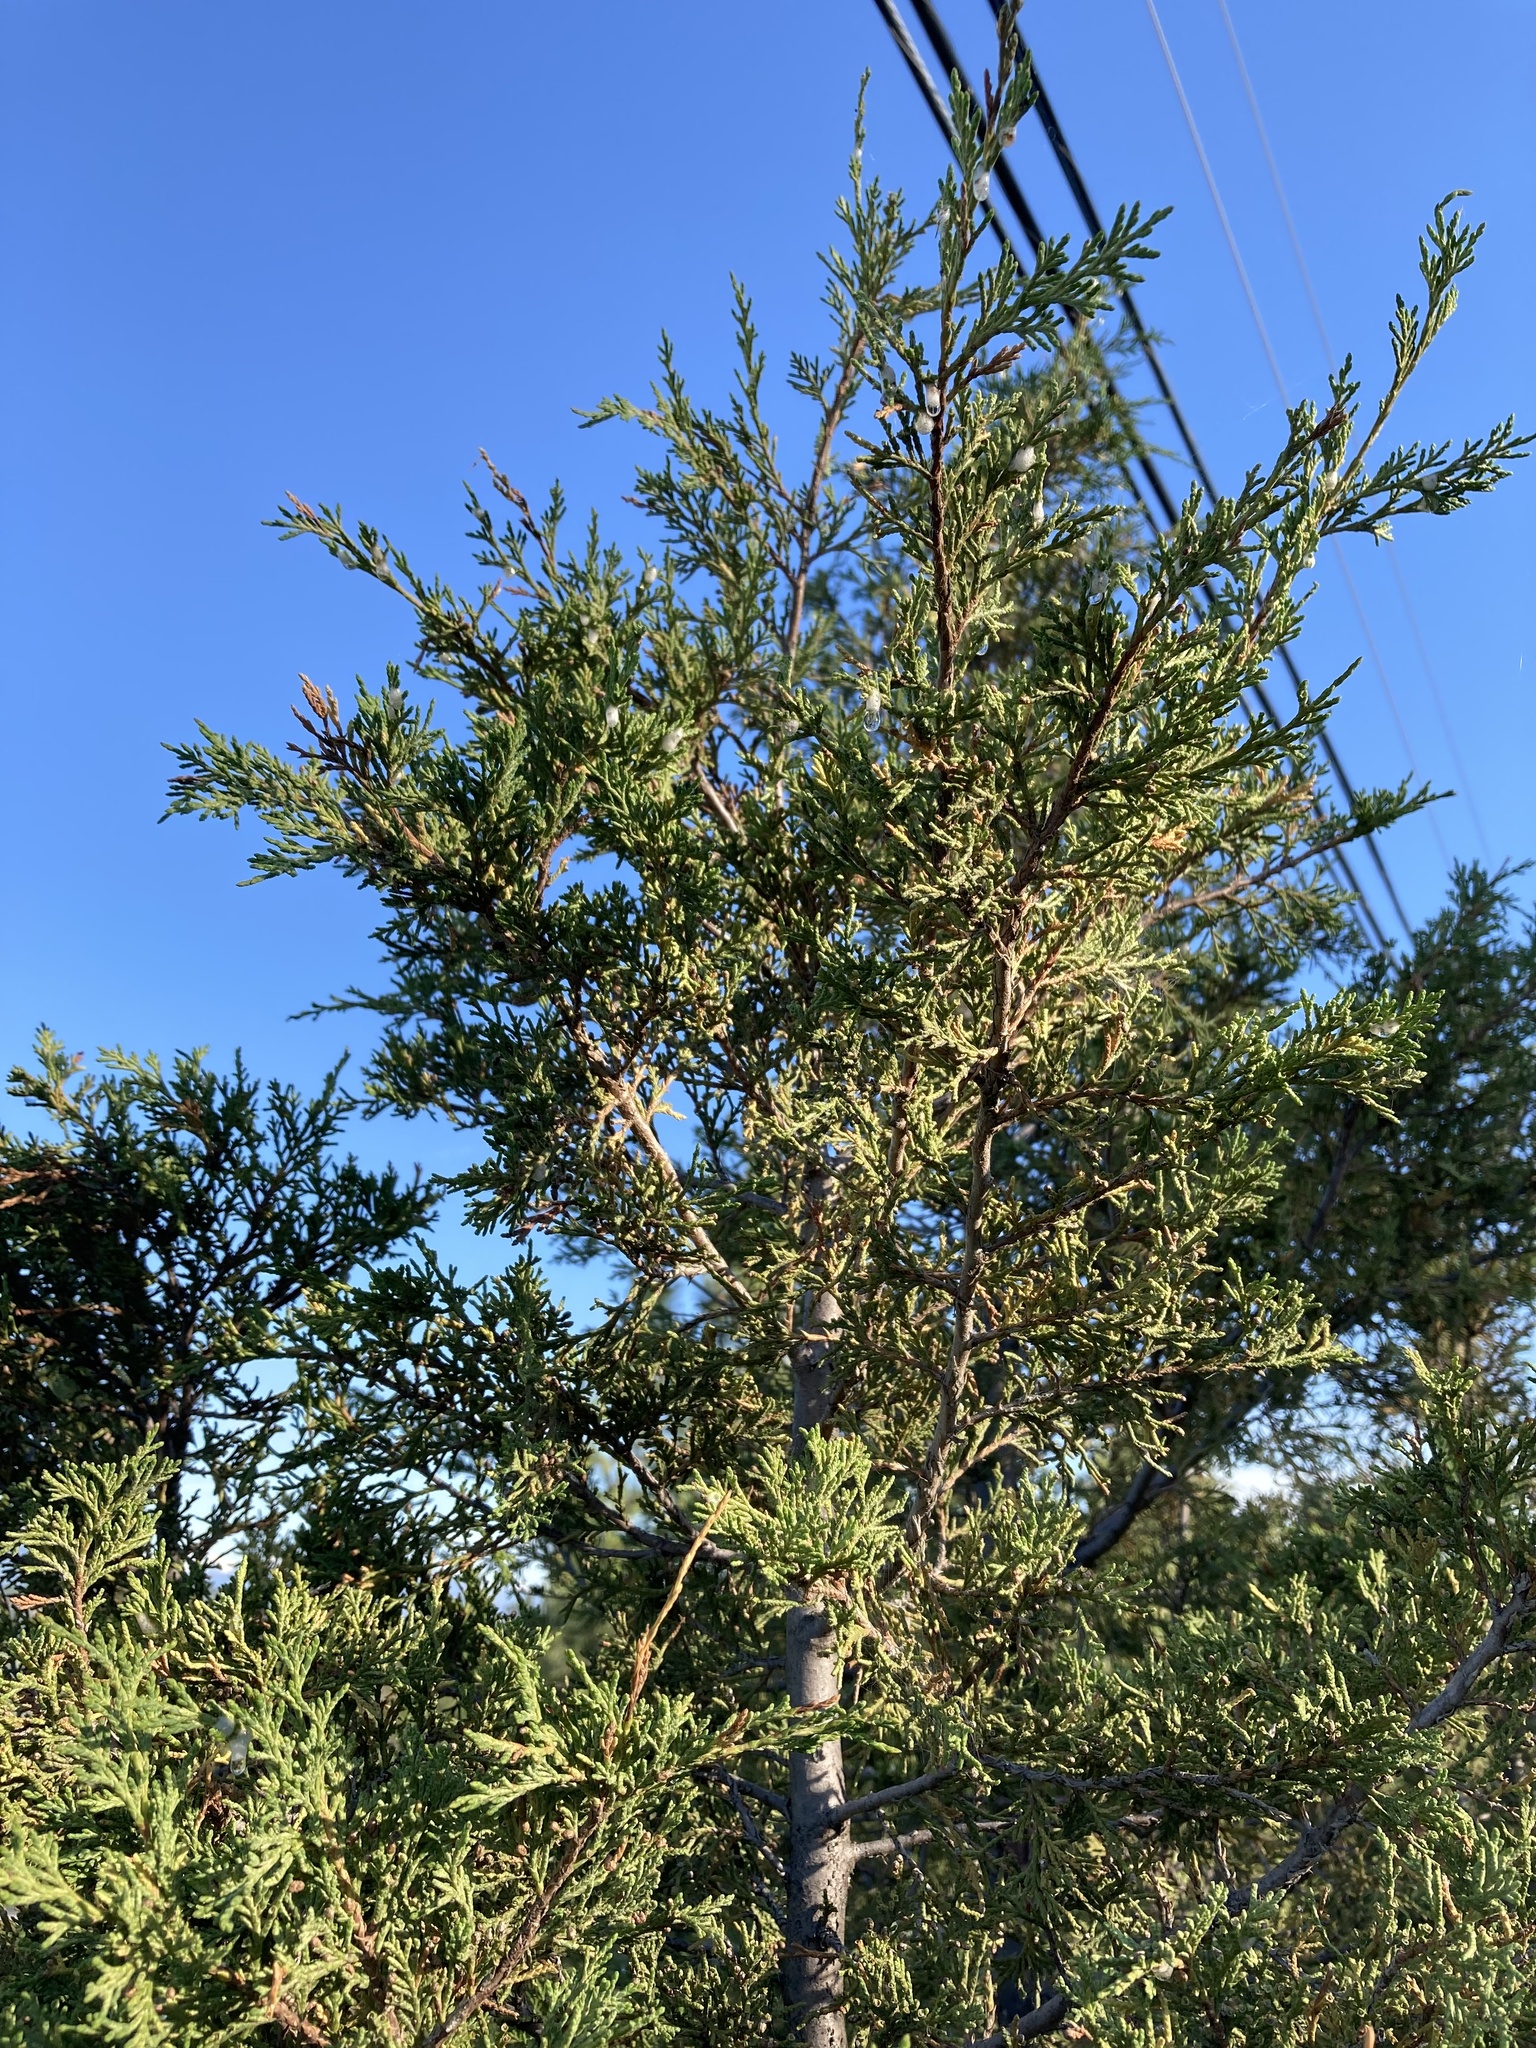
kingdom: Plantae
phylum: Tracheophyta
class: Pinopsida
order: Pinales
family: Cupressaceae
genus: Juniperus
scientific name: Juniperus scopulorum
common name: Rocky mountain juniper
